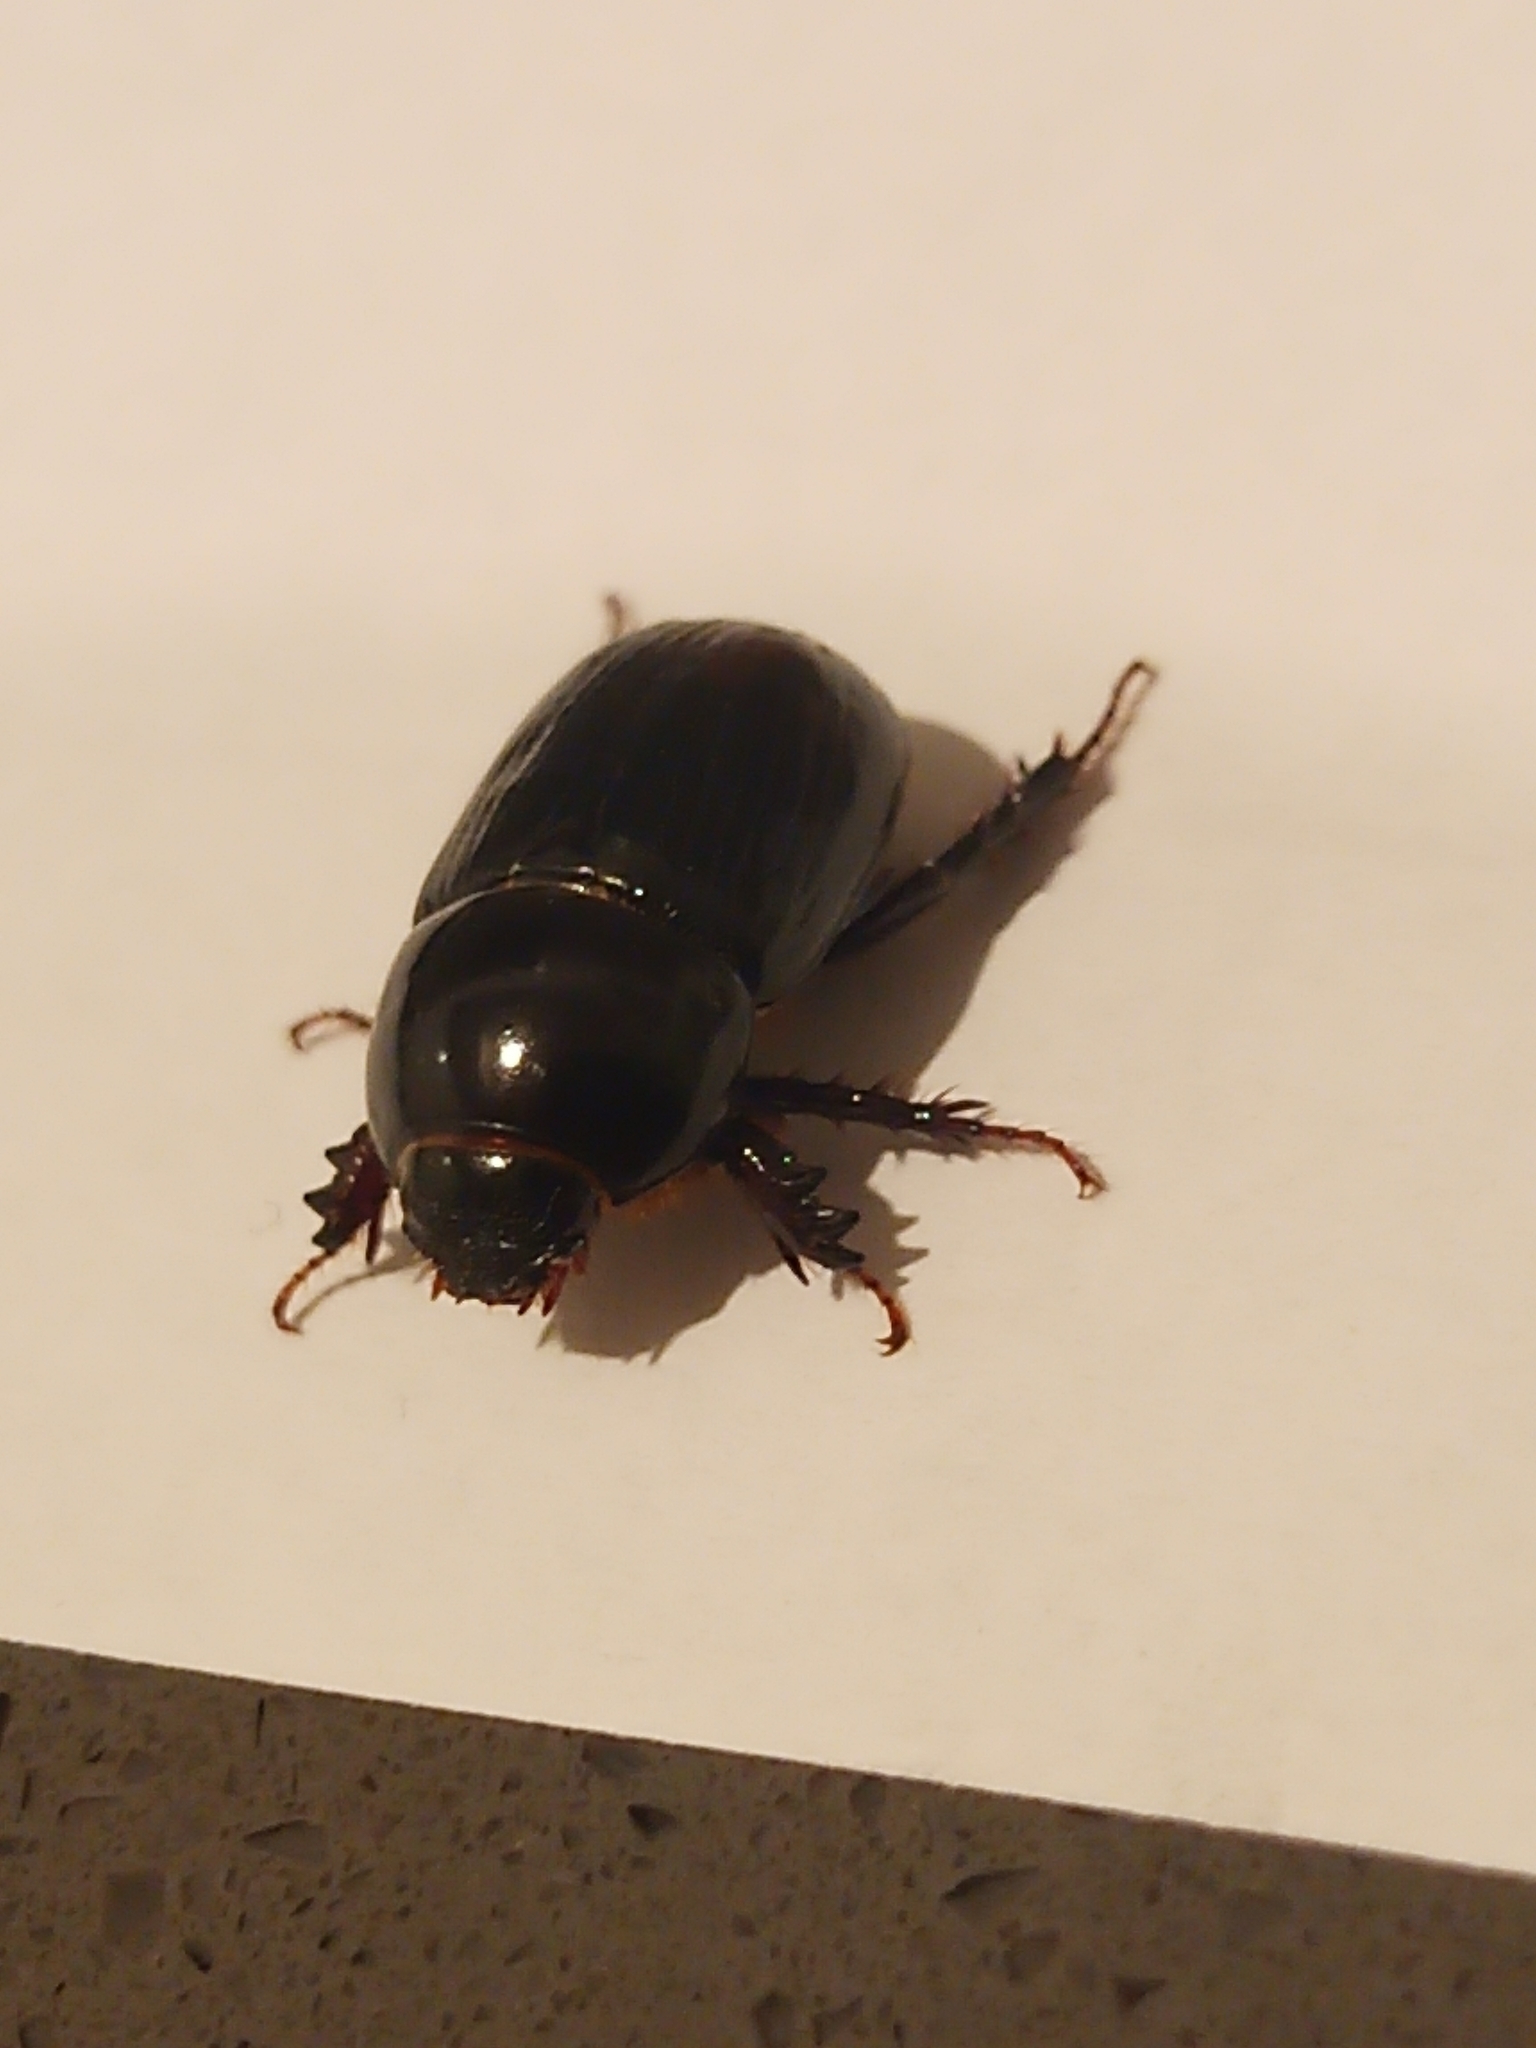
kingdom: Animalia
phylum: Arthropoda
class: Insecta
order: Coleoptera
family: Scarabaeidae
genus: Heteronychus
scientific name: Heteronychus arator
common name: African black beetle
